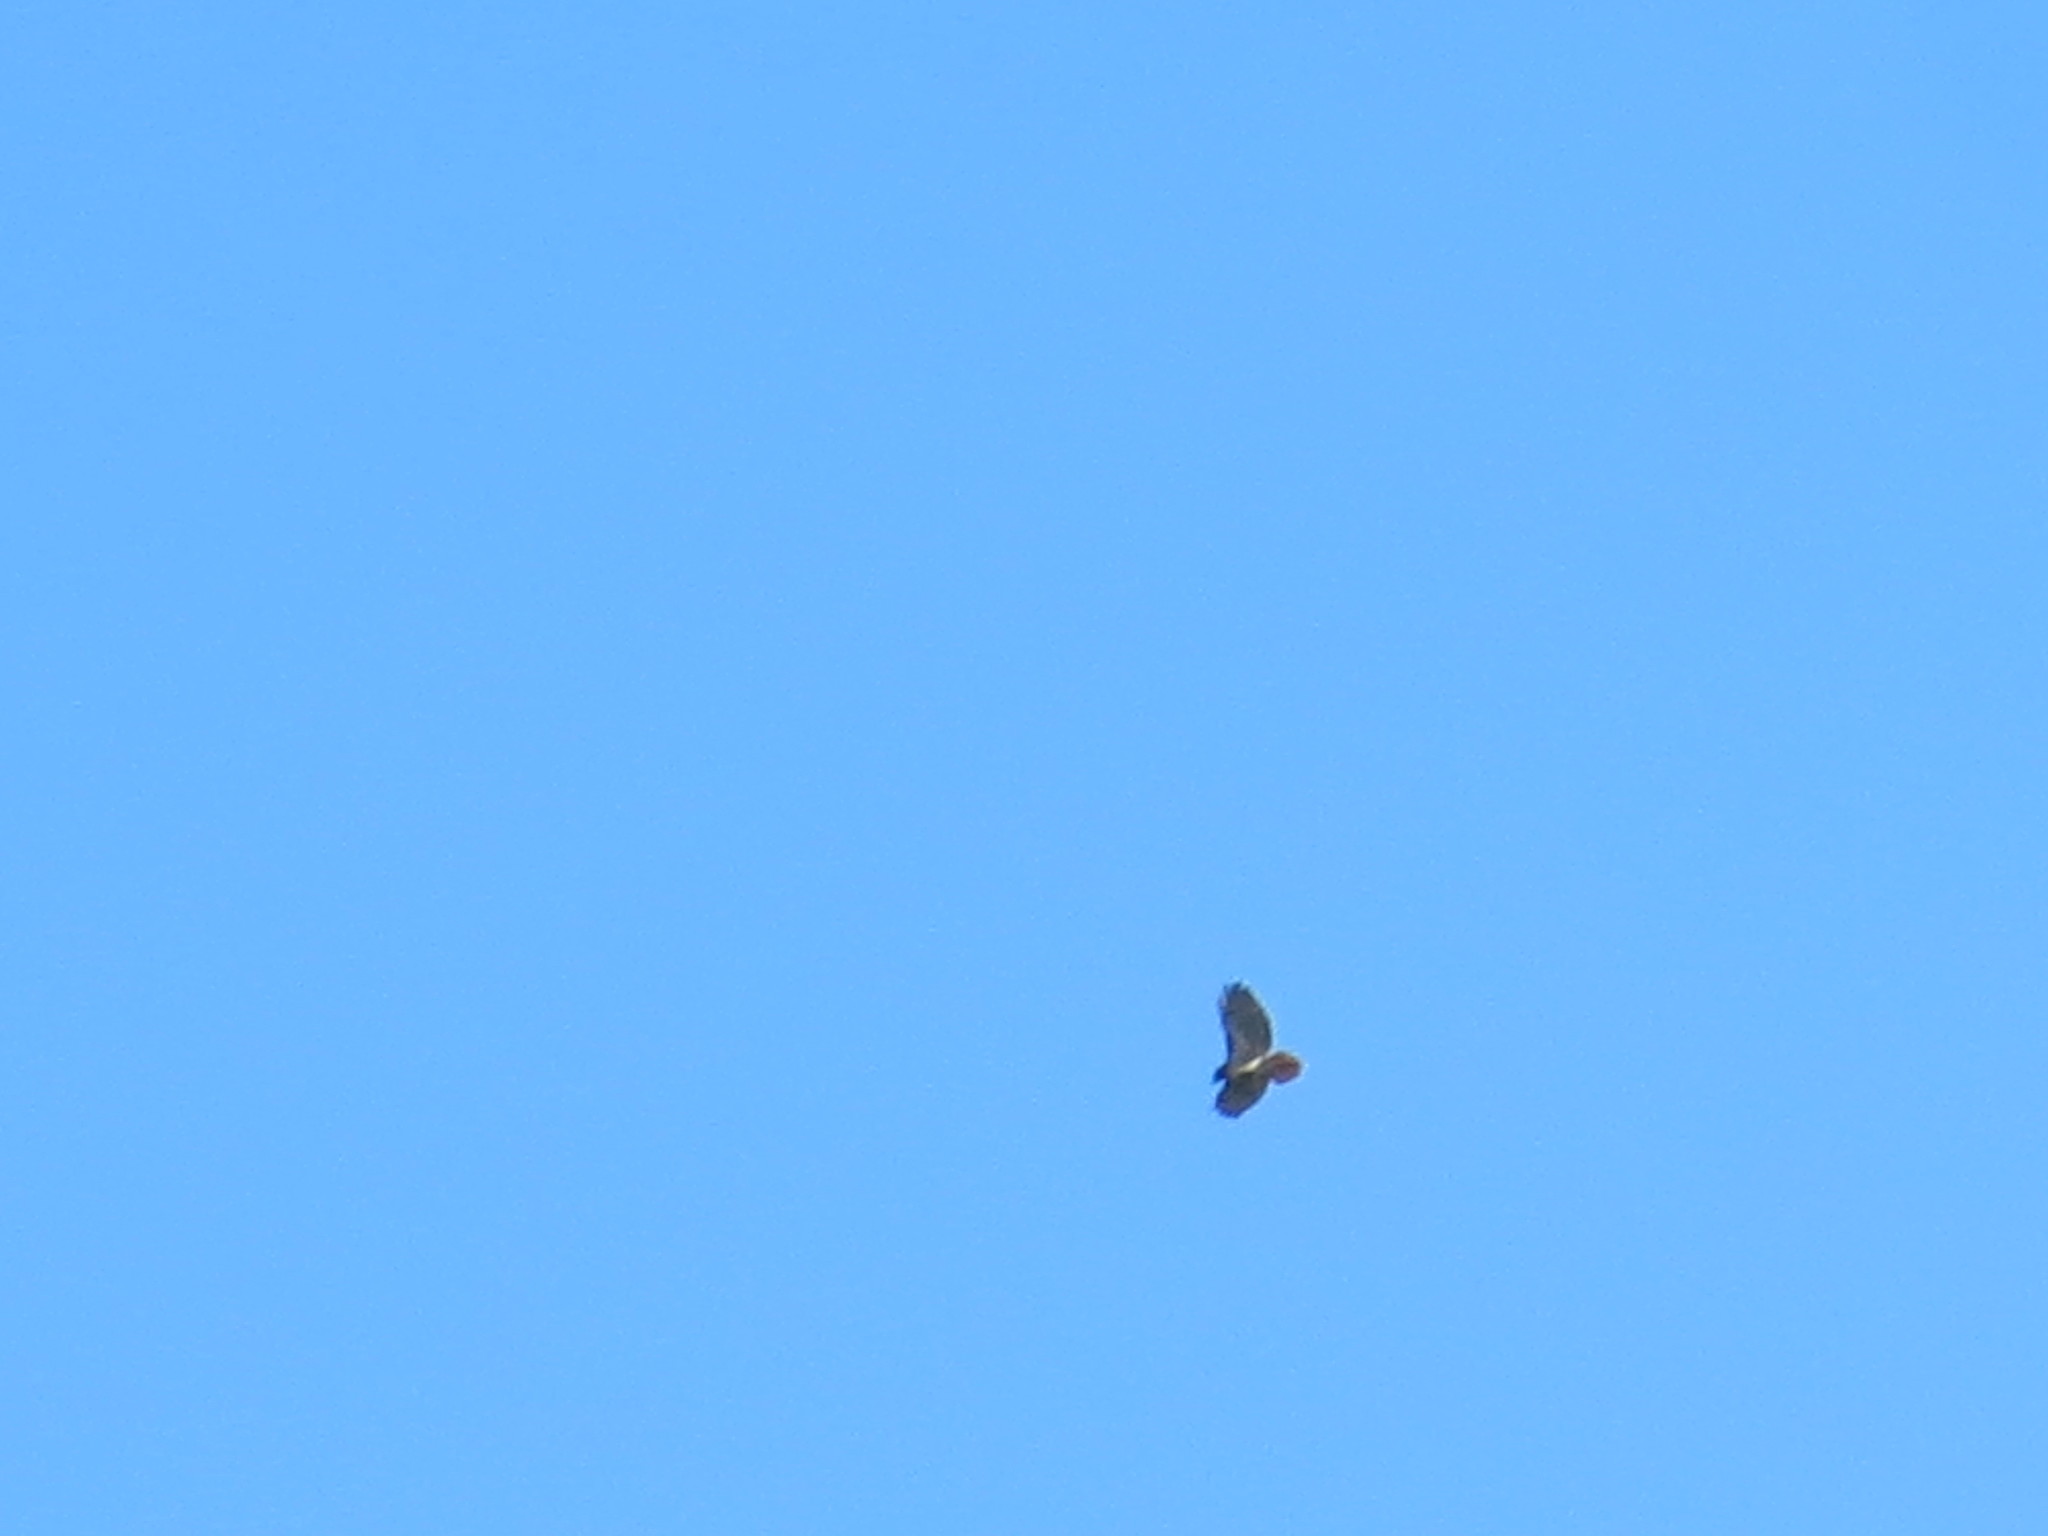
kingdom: Animalia
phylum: Chordata
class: Aves
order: Accipitriformes
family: Accipitridae
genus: Buteo
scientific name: Buteo jamaicensis
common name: Red-tailed hawk
